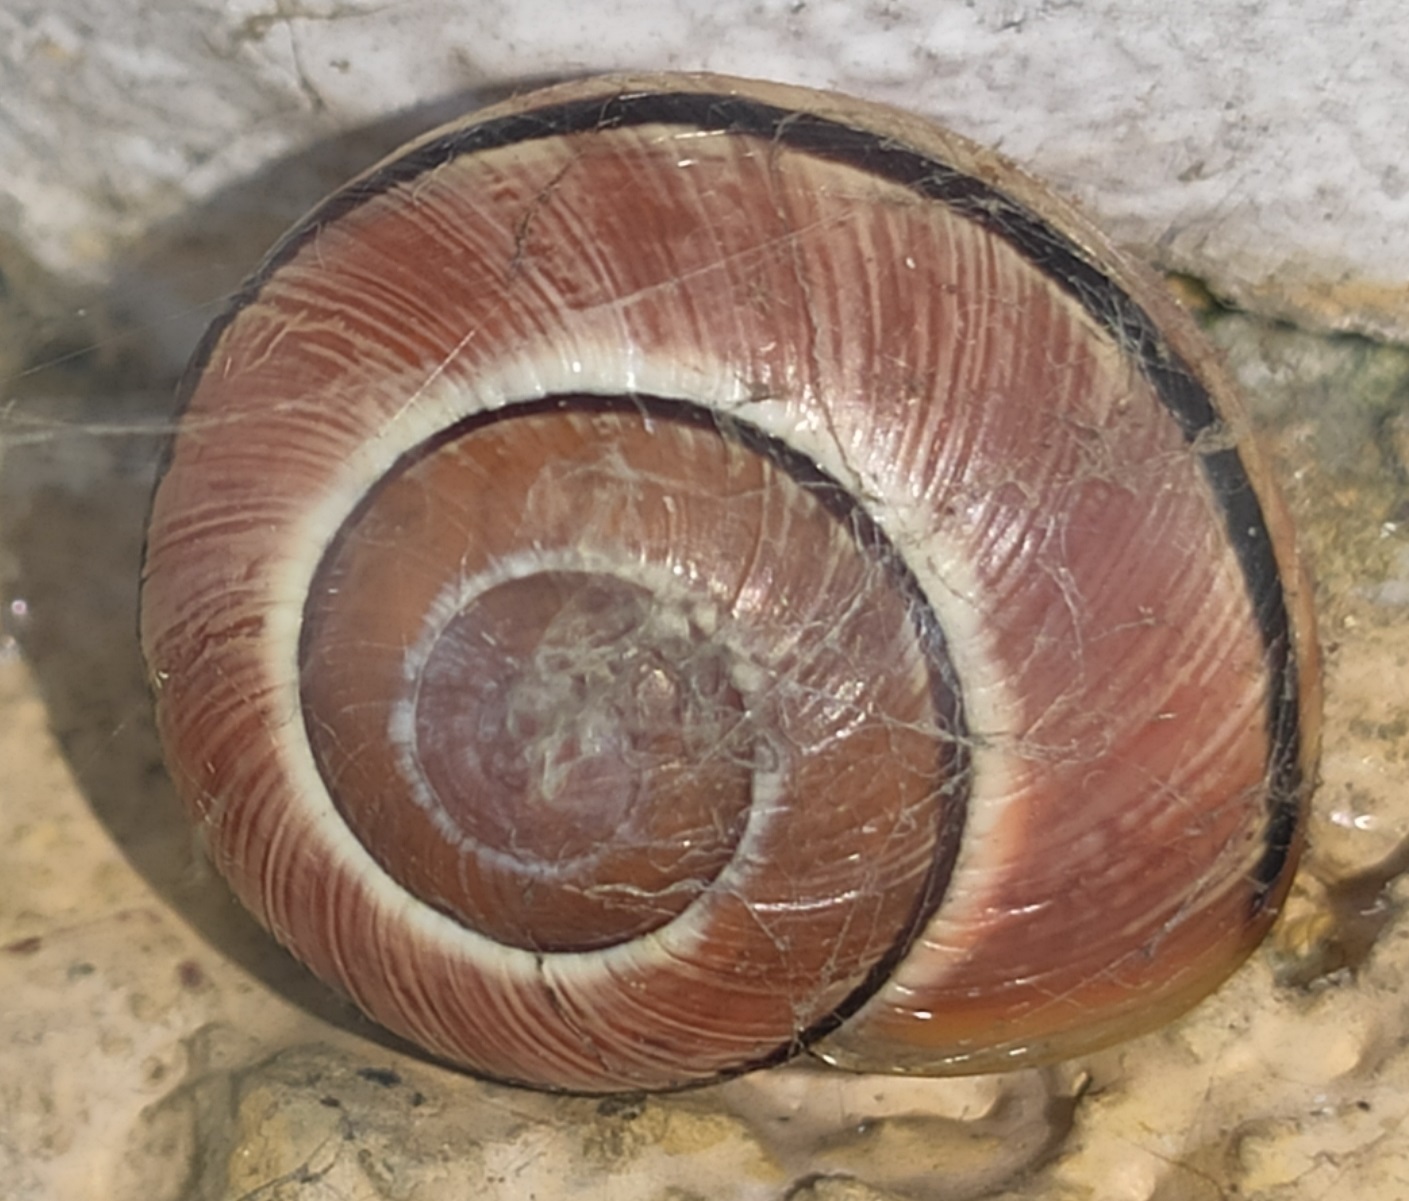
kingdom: Animalia
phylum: Mollusca
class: Gastropoda
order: Stylommatophora
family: Helicidae
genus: Cepaea
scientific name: Cepaea nemoralis
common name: Grovesnail
